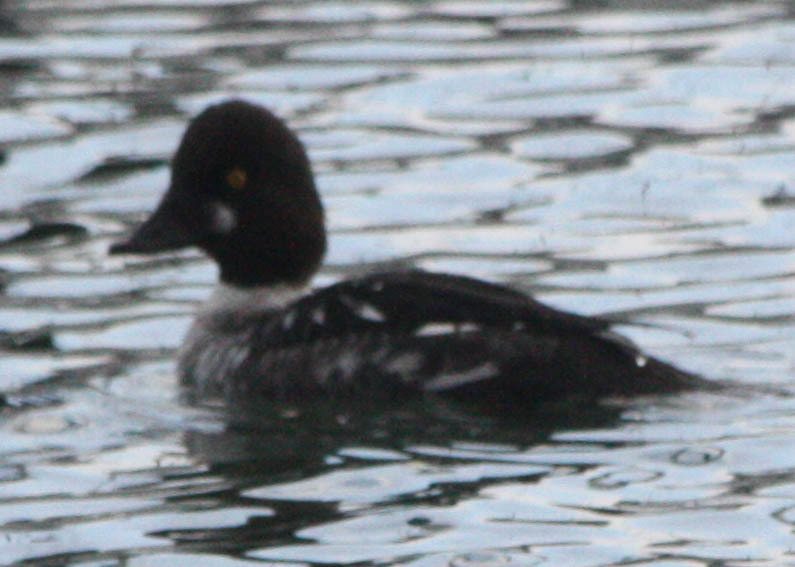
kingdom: Animalia
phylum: Chordata
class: Aves
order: Anseriformes
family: Anatidae
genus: Bucephala
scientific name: Bucephala clangula
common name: Common goldeneye
